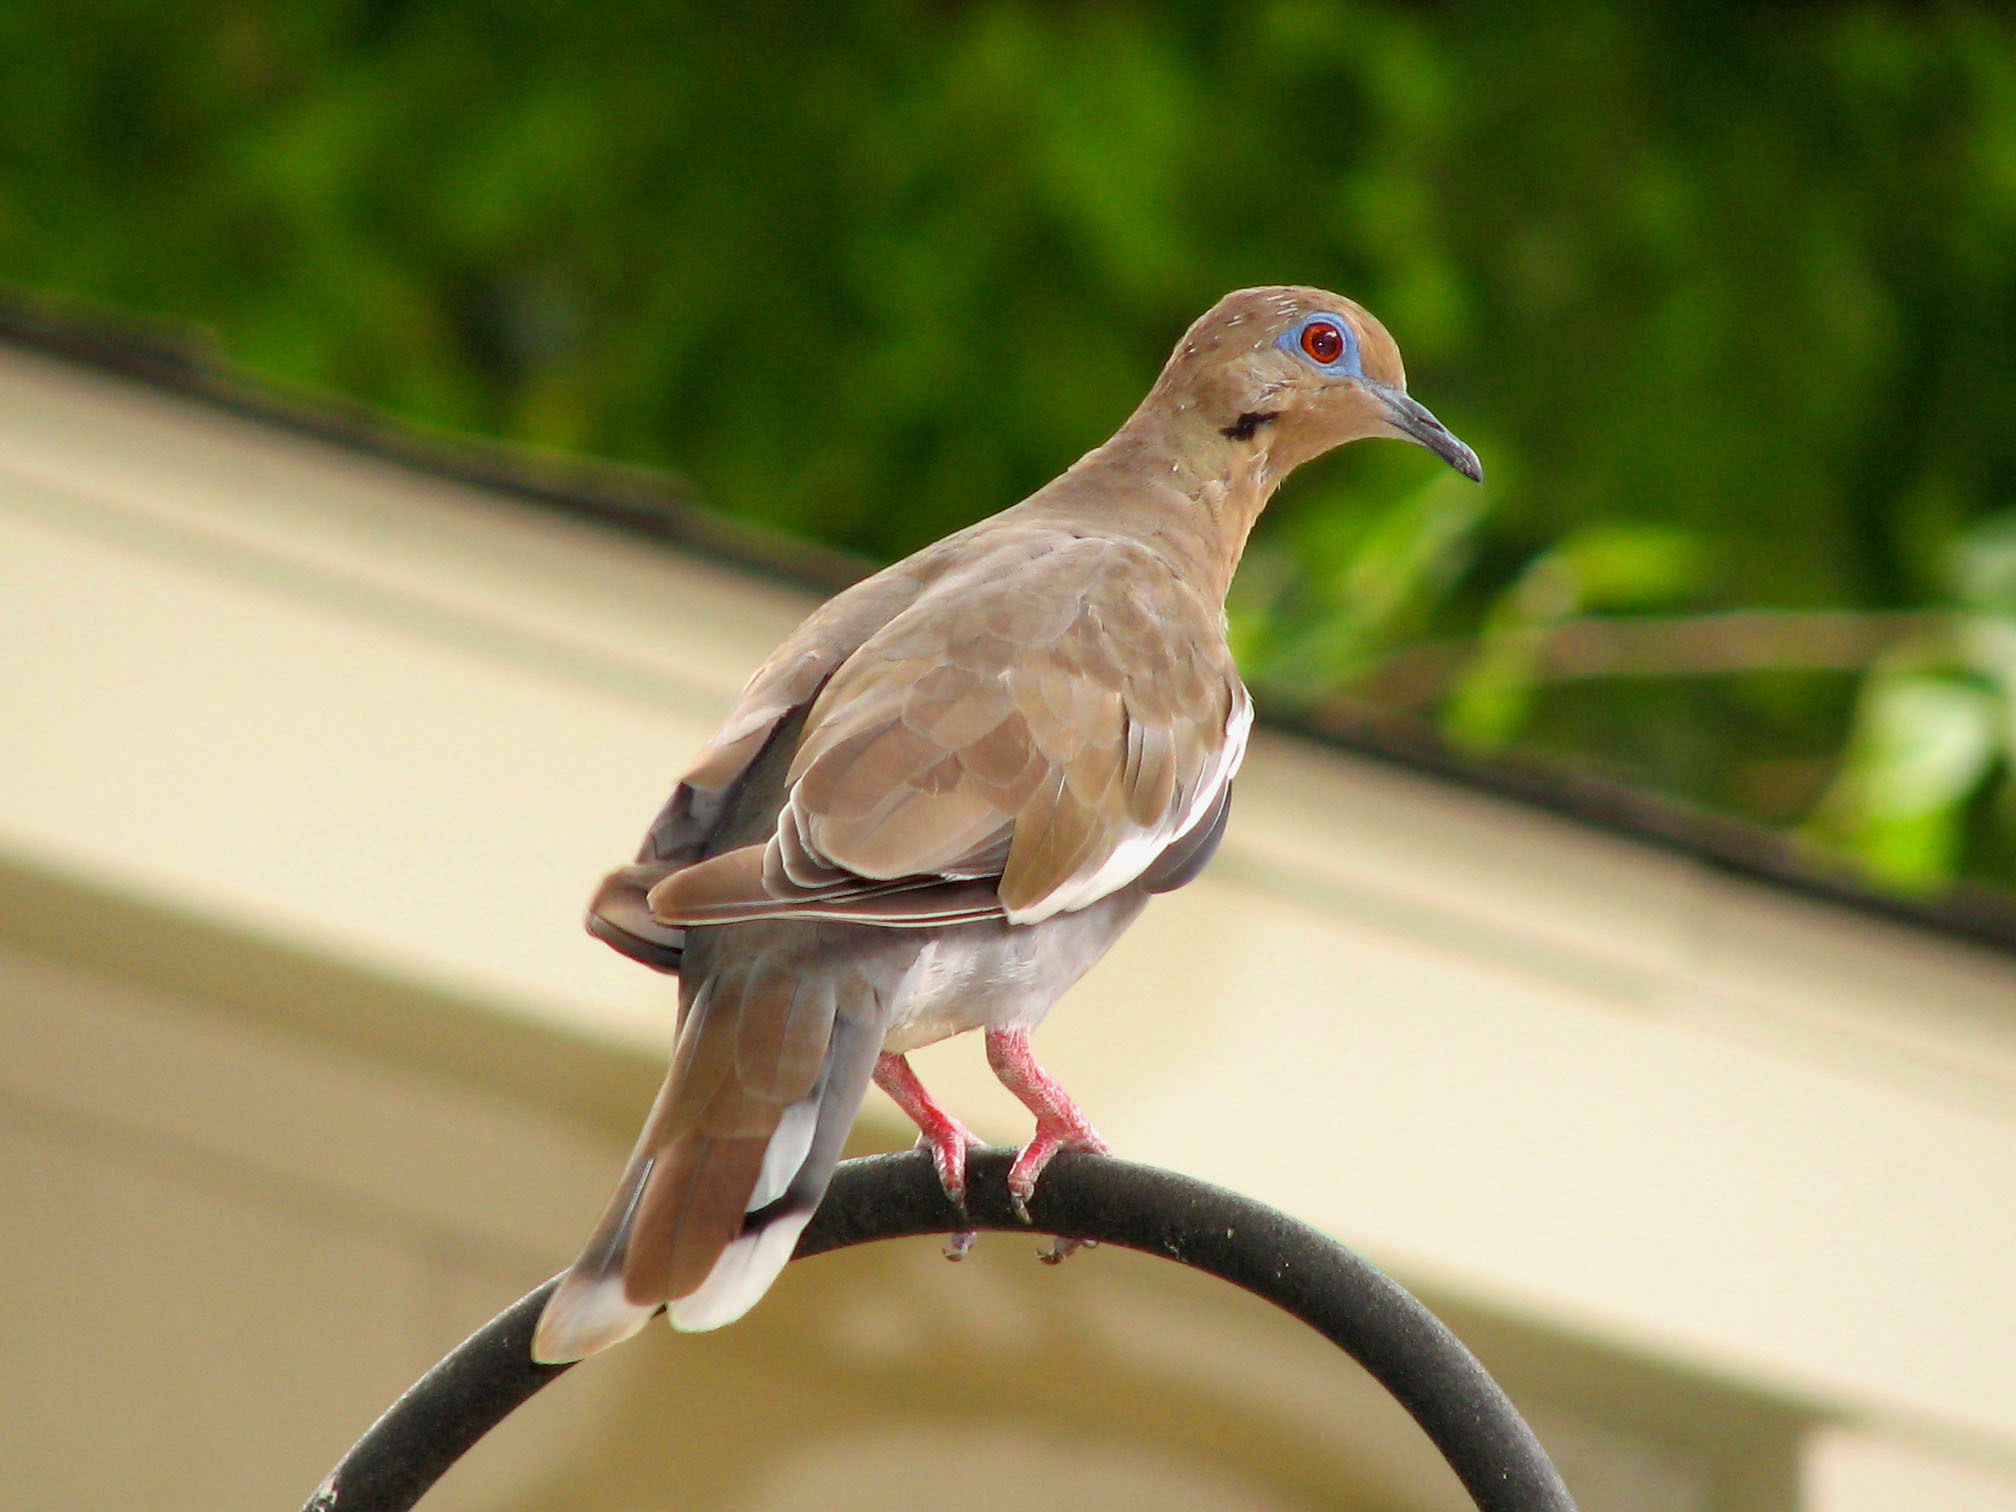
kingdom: Animalia
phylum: Chordata
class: Aves
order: Columbiformes
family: Columbidae
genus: Zenaida
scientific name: Zenaida asiatica
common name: White-winged dove
